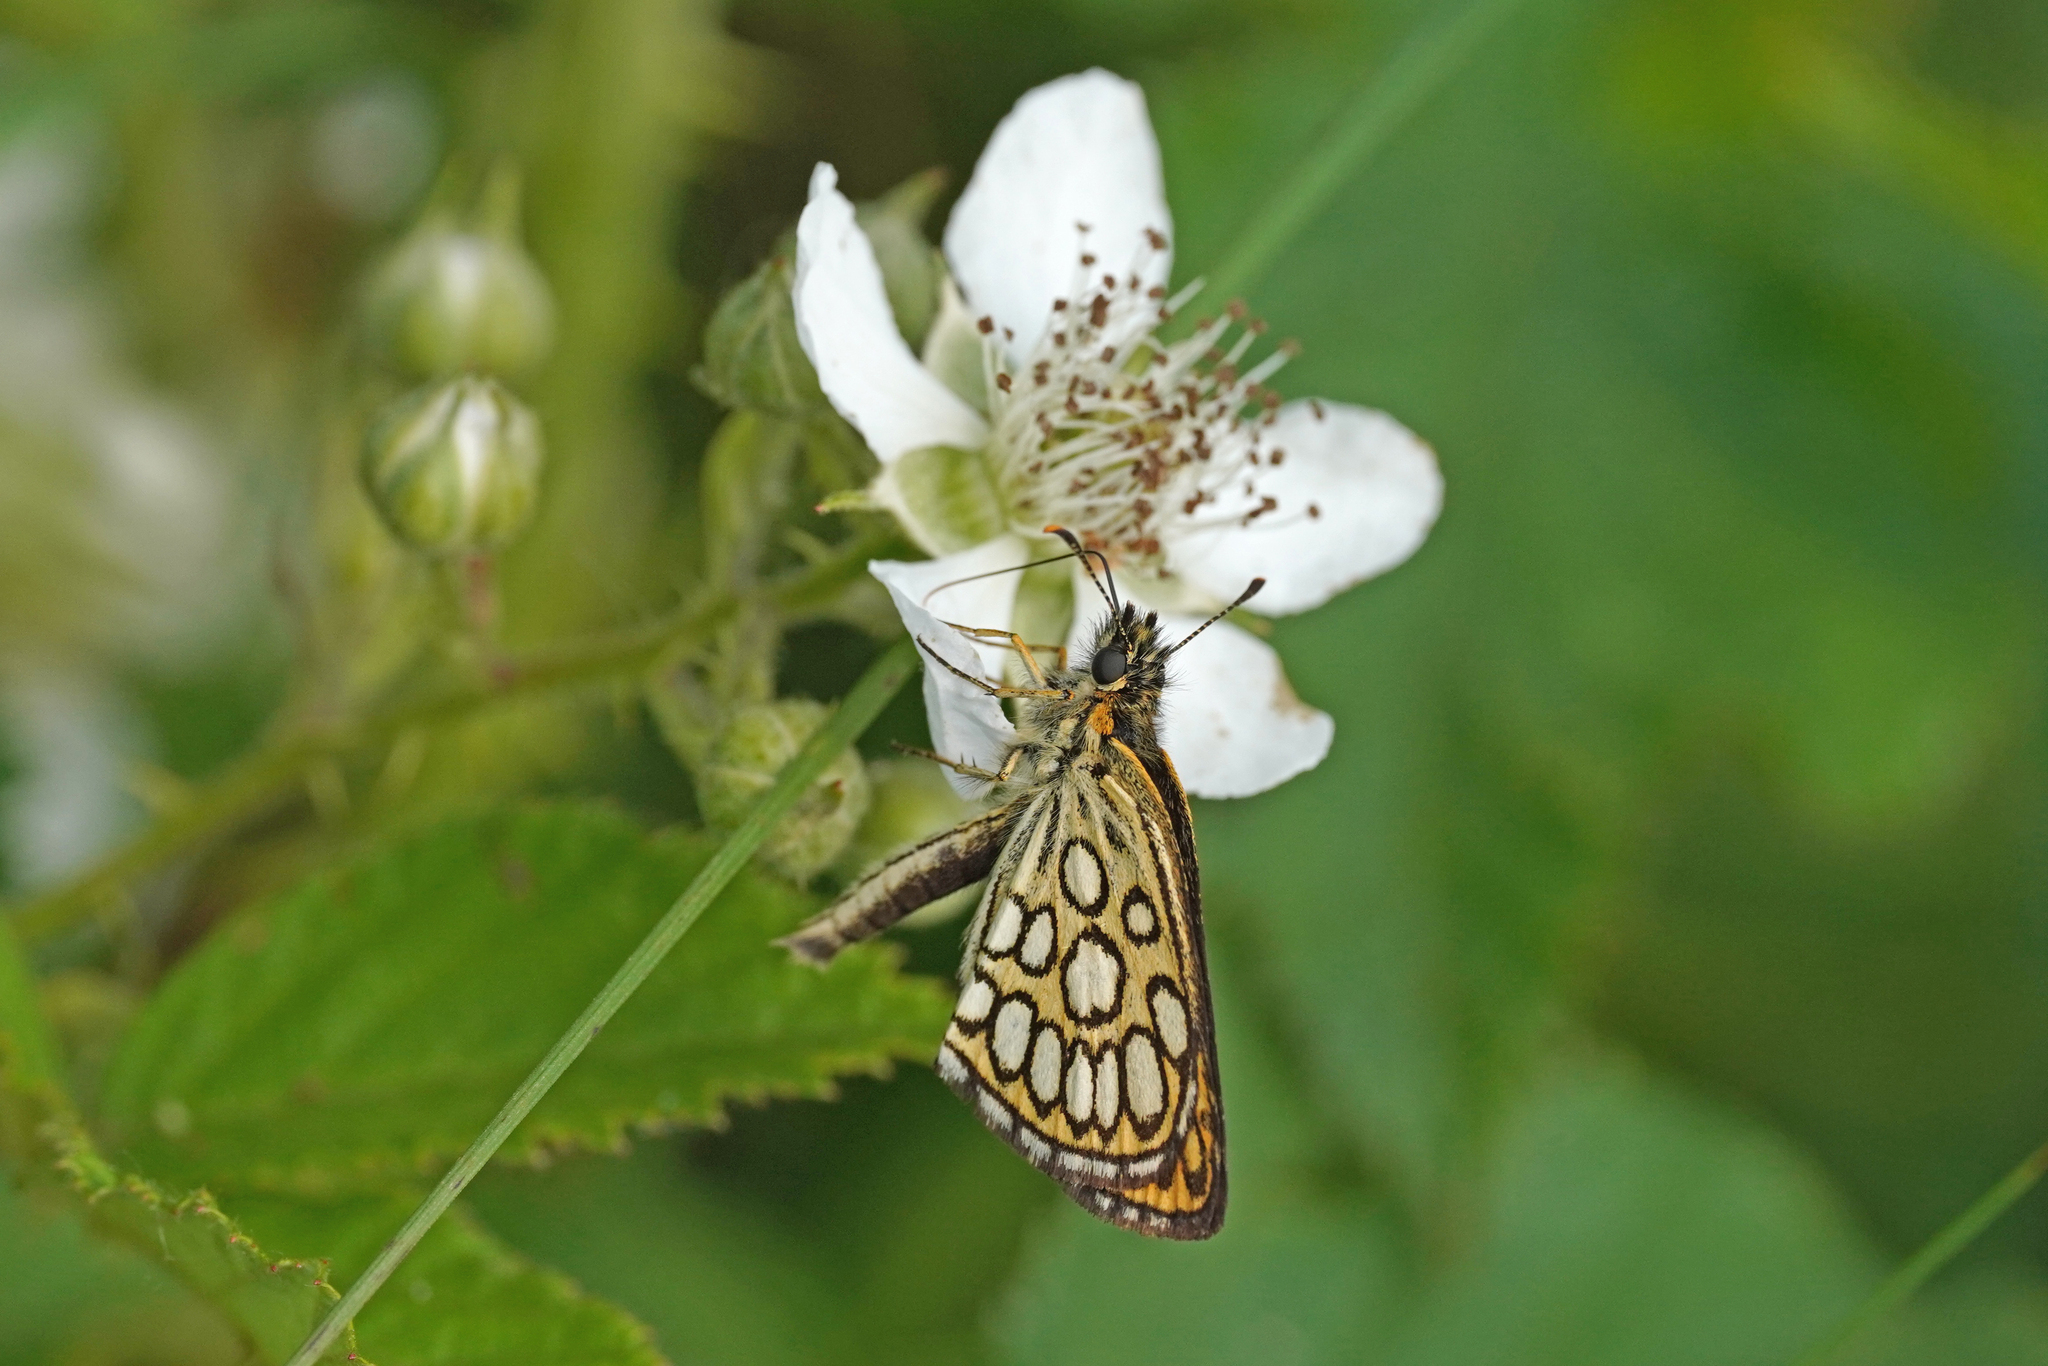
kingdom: Animalia
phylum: Arthropoda
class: Insecta
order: Lepidoptera
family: Hesperiidae
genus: Heteropterus
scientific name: Heteropterus morpheus
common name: Large chequered skipper
